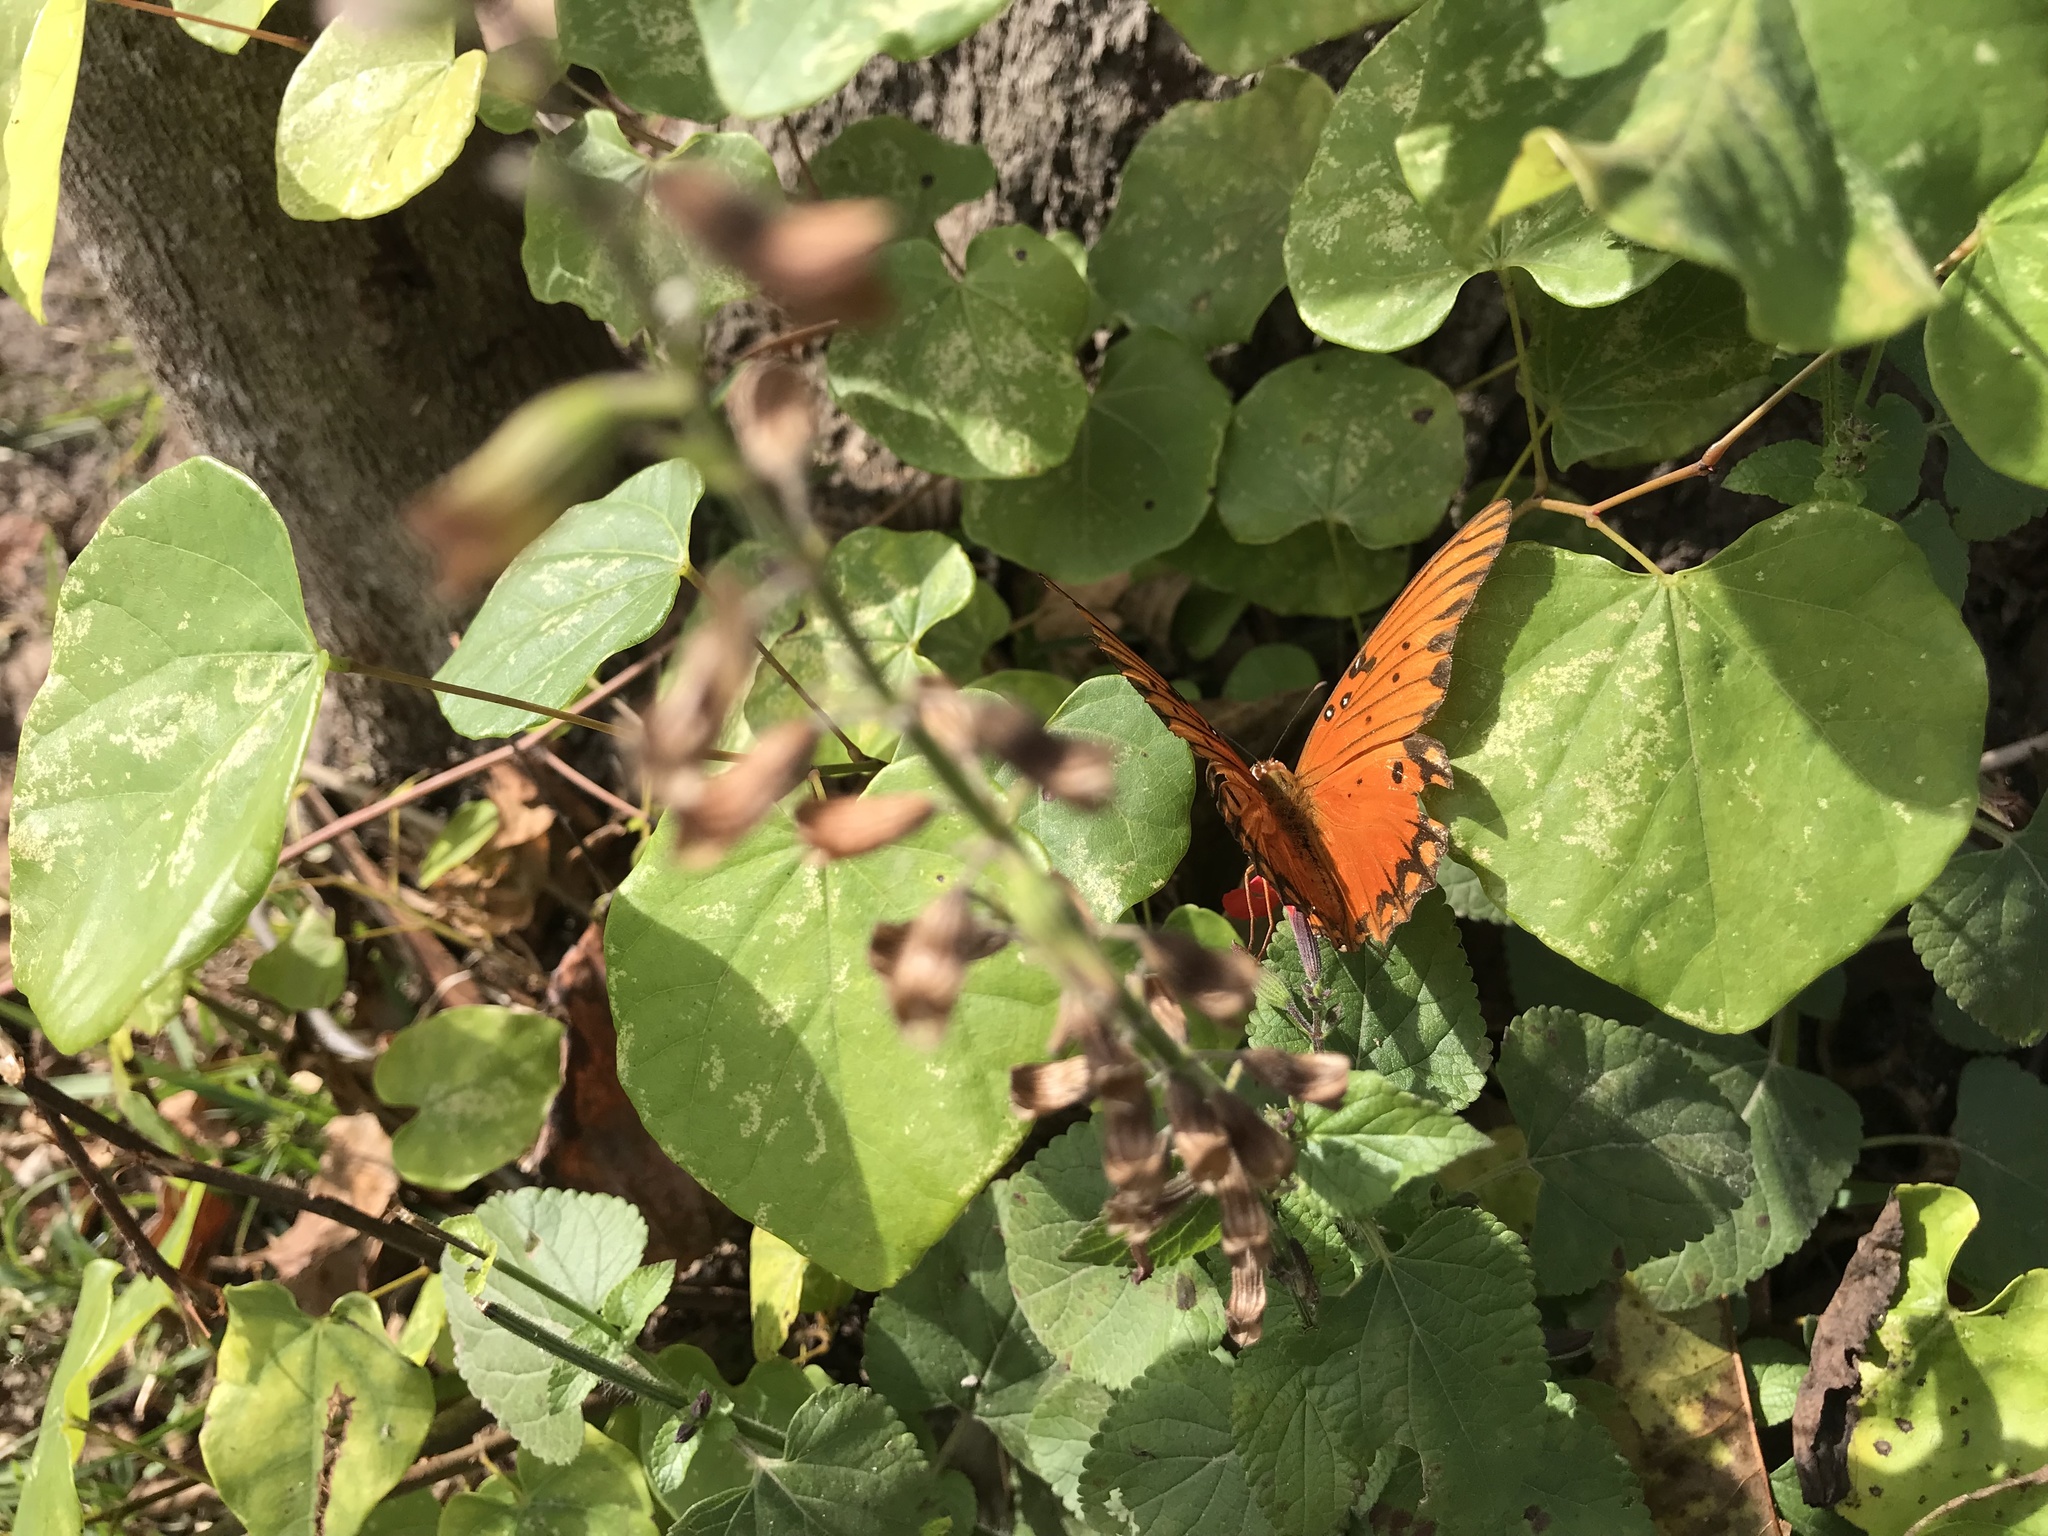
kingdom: Animalia
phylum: Arthropoda
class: Insecta
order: Lepidoptera
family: Nymphalidae
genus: Dione
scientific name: Dione vanillae
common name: Gulf fritillary
